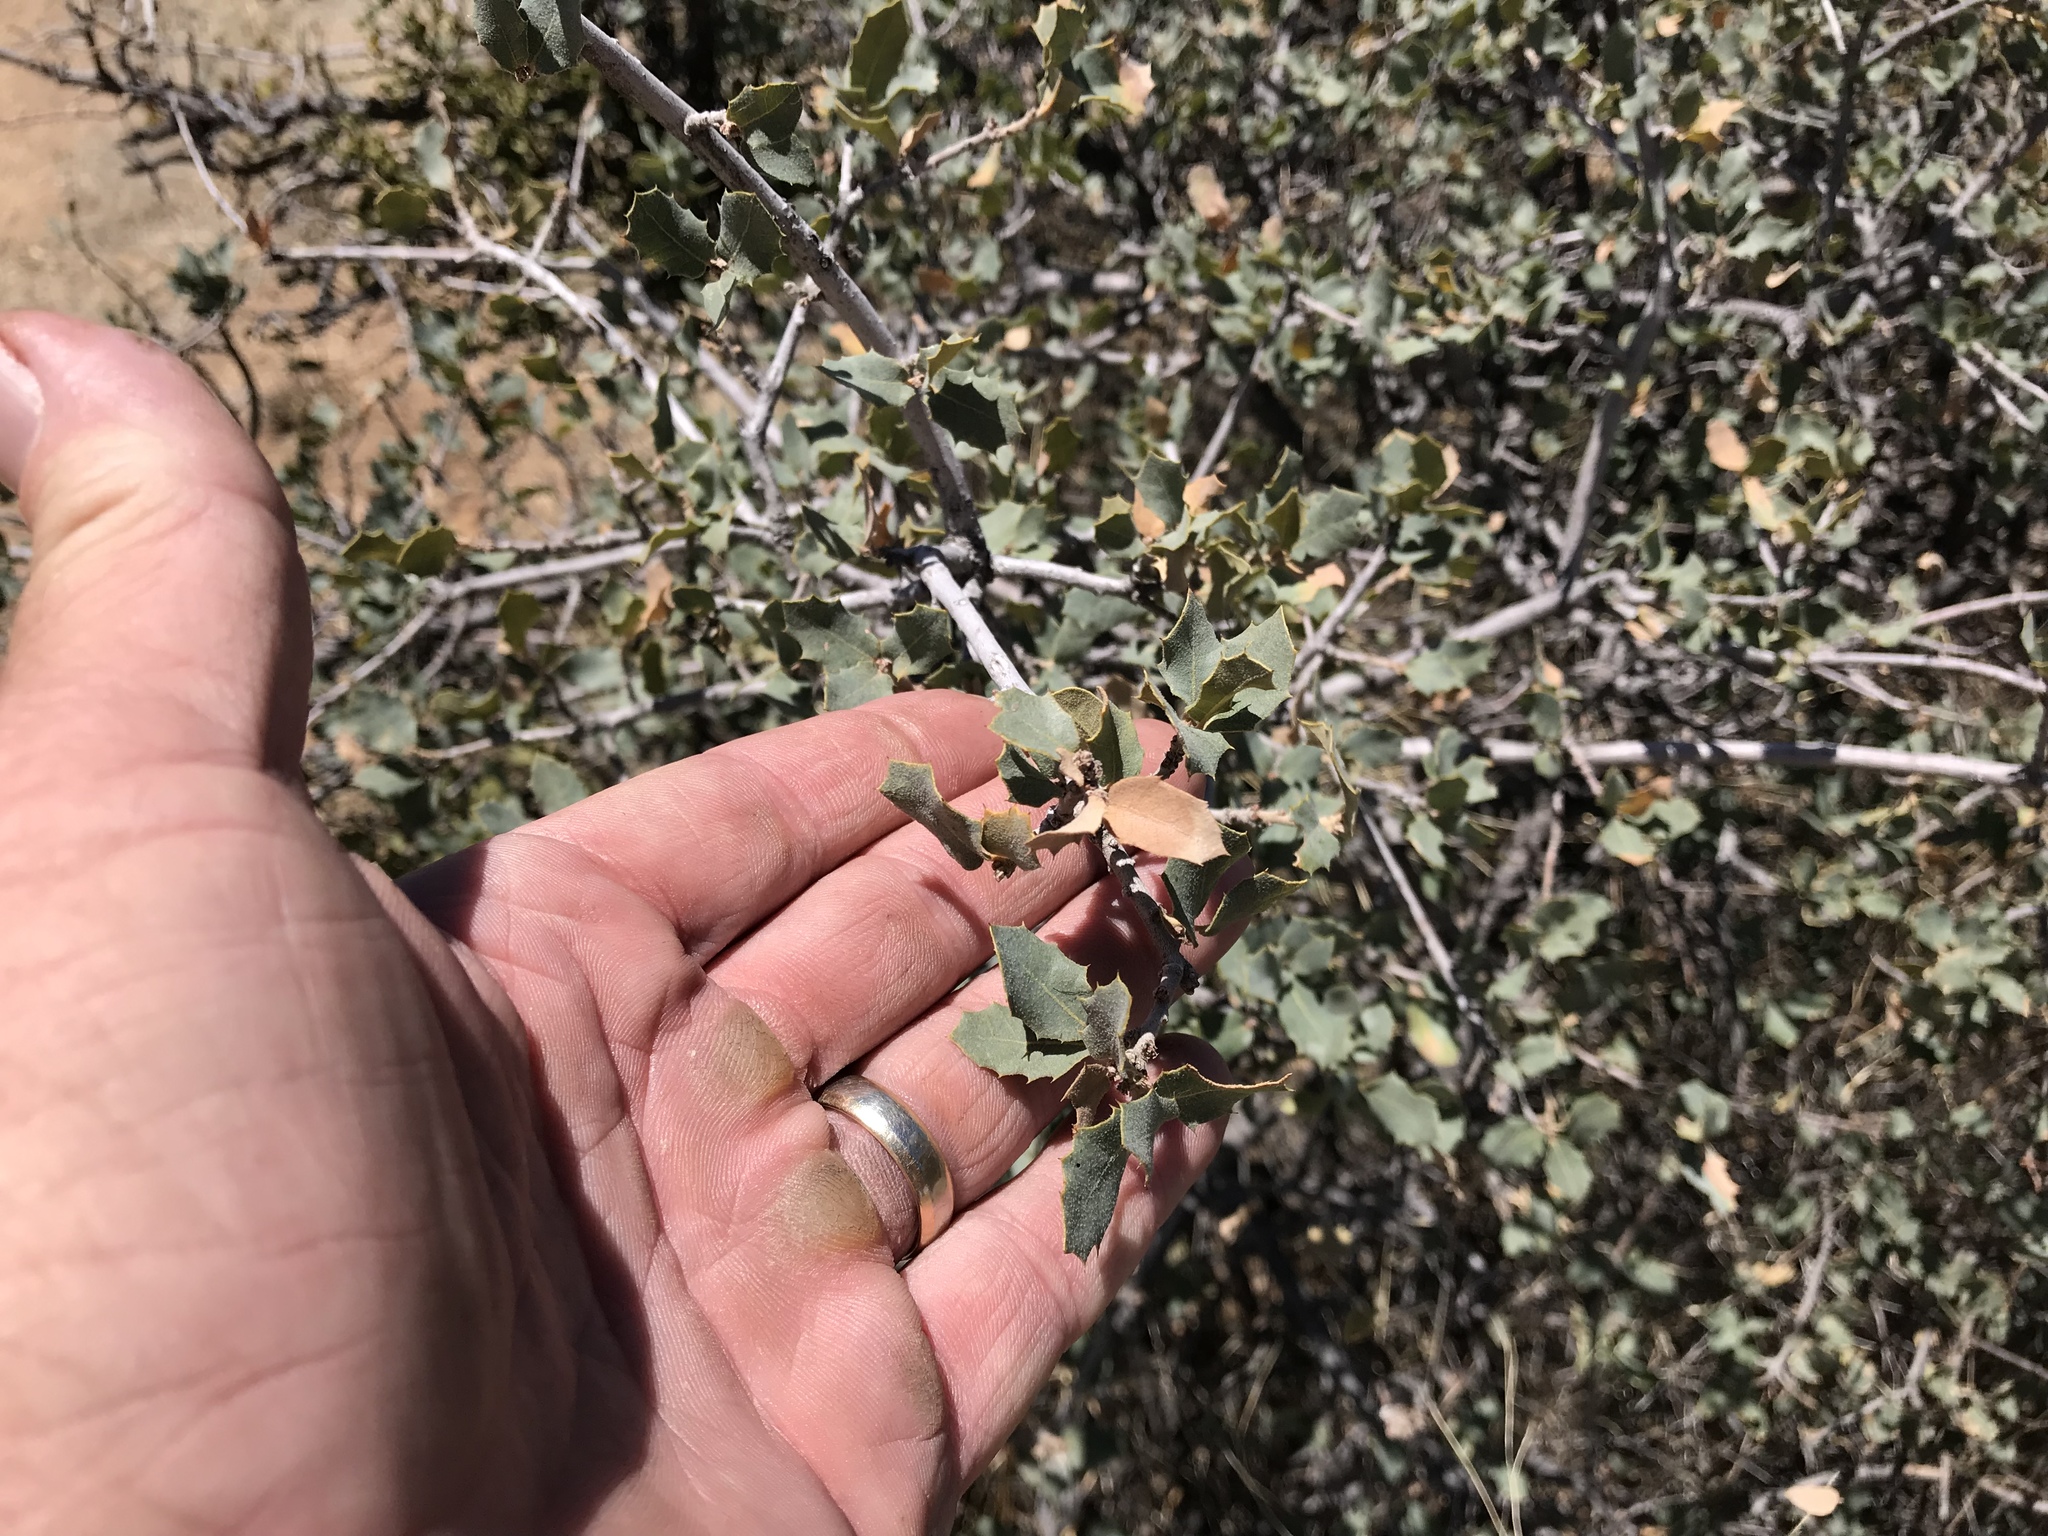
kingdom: Plantae
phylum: Tracheophyta
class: Magnoliopsida
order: Fagales
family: Fagaceae
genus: Quercus
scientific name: Quercus turbinella
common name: Sonoran scrub oak
